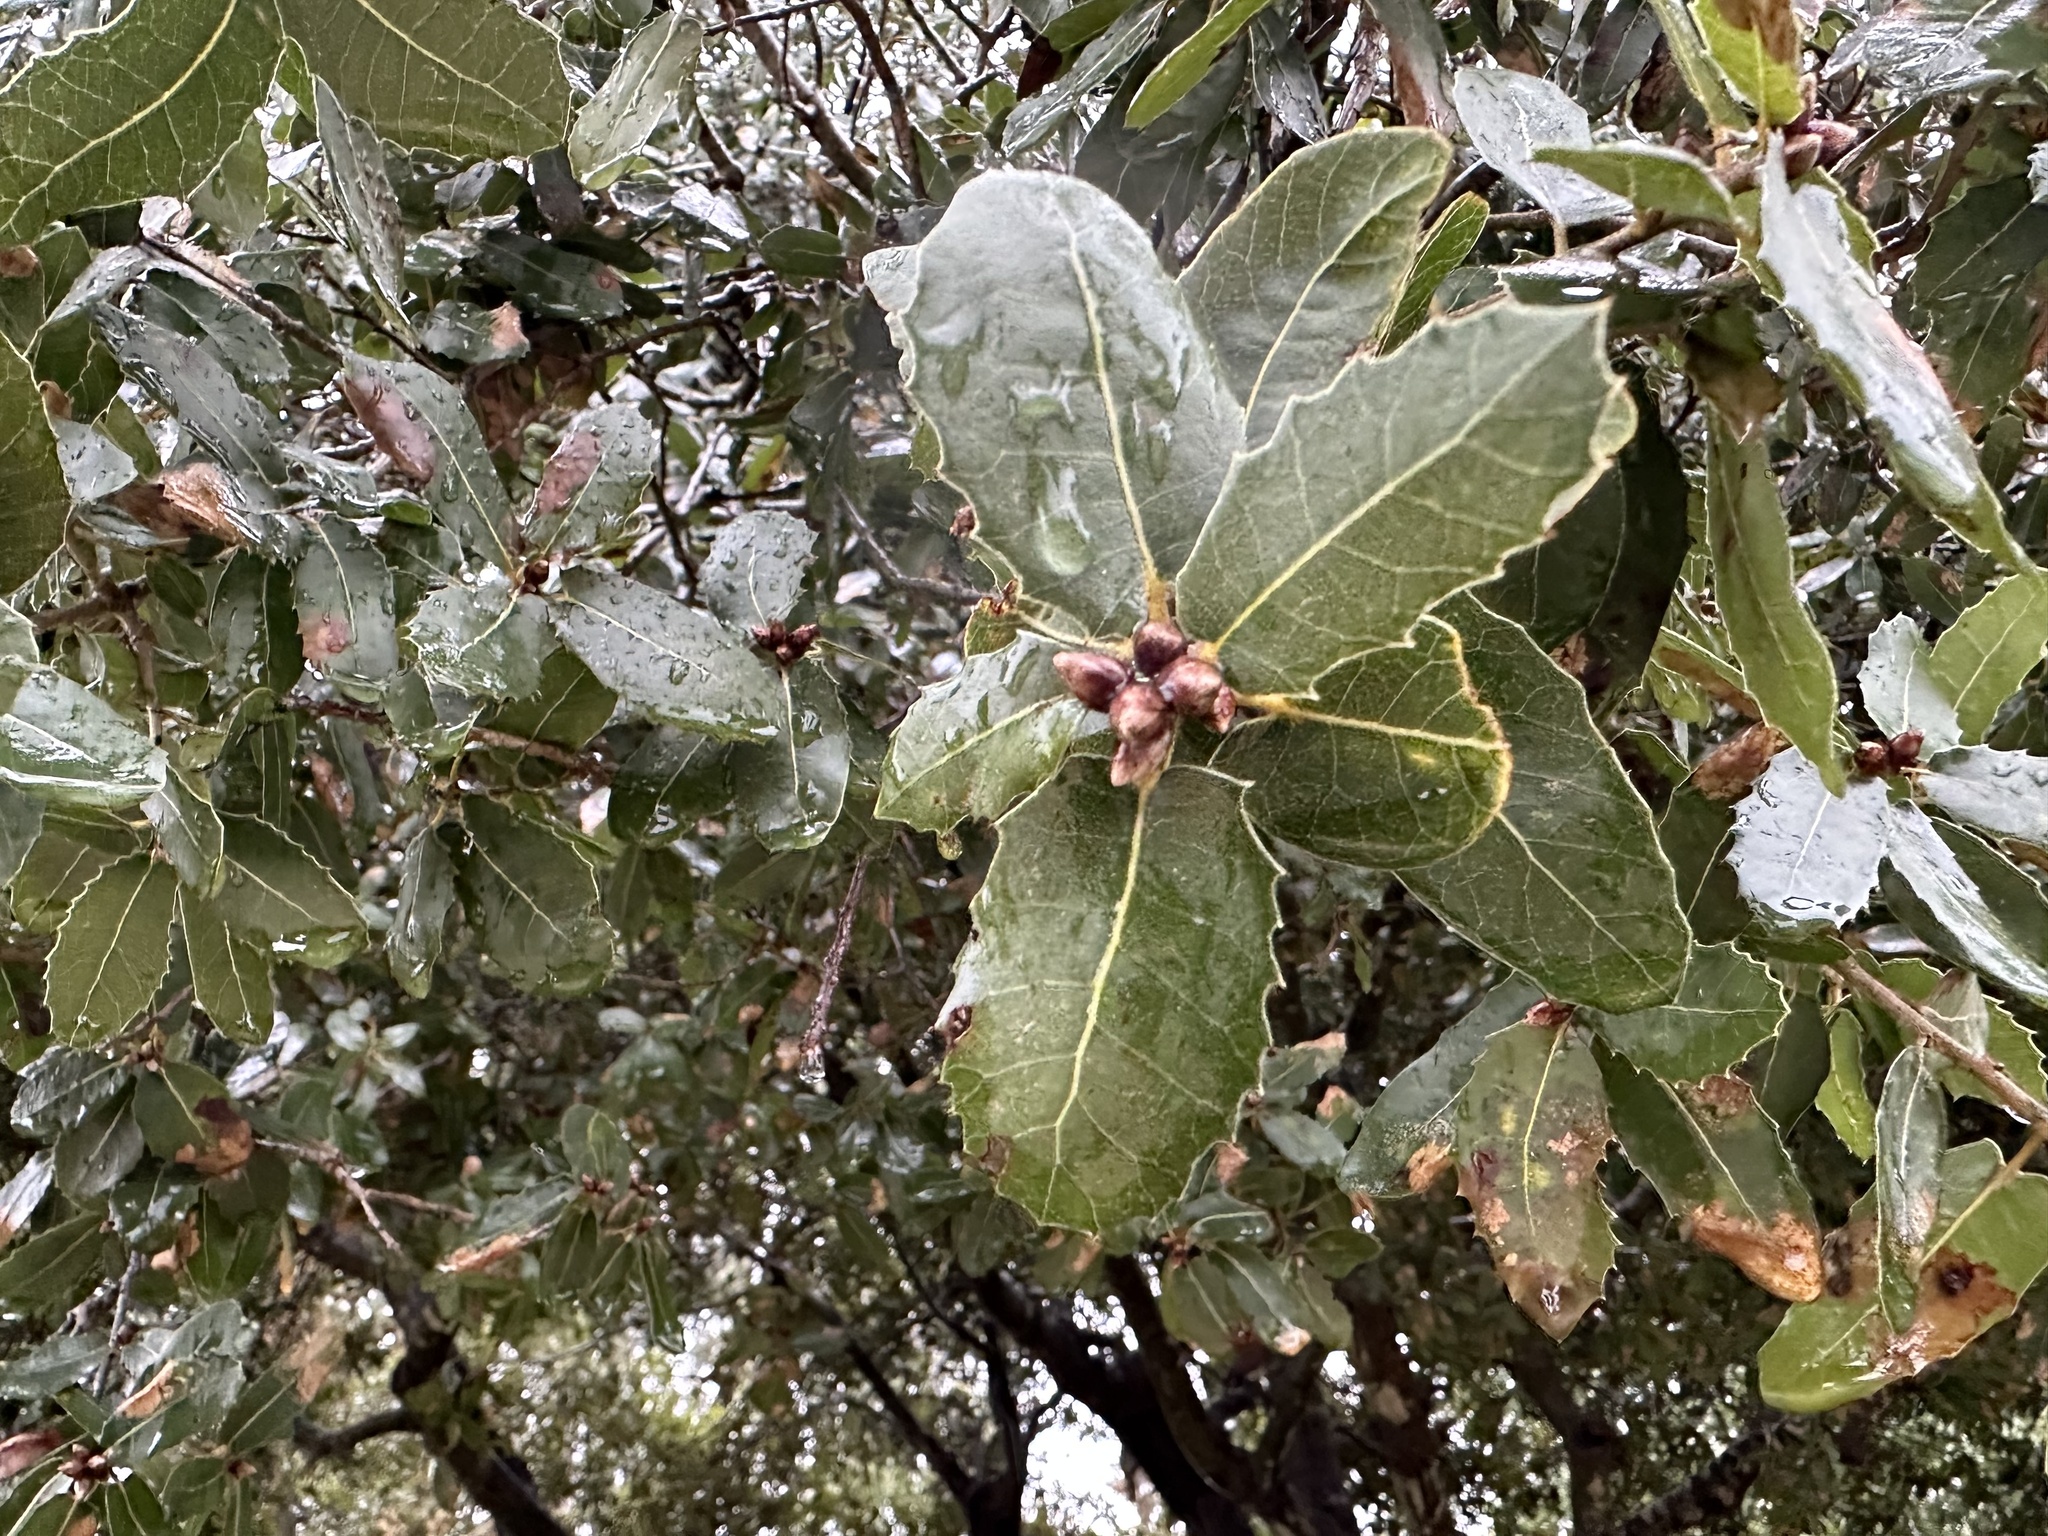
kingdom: Plantae
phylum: Tracheophyta
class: Magnoliopsida
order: Fagales
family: Fagaceae
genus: Quercus
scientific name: Quercus coccifera
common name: Kermes oak
